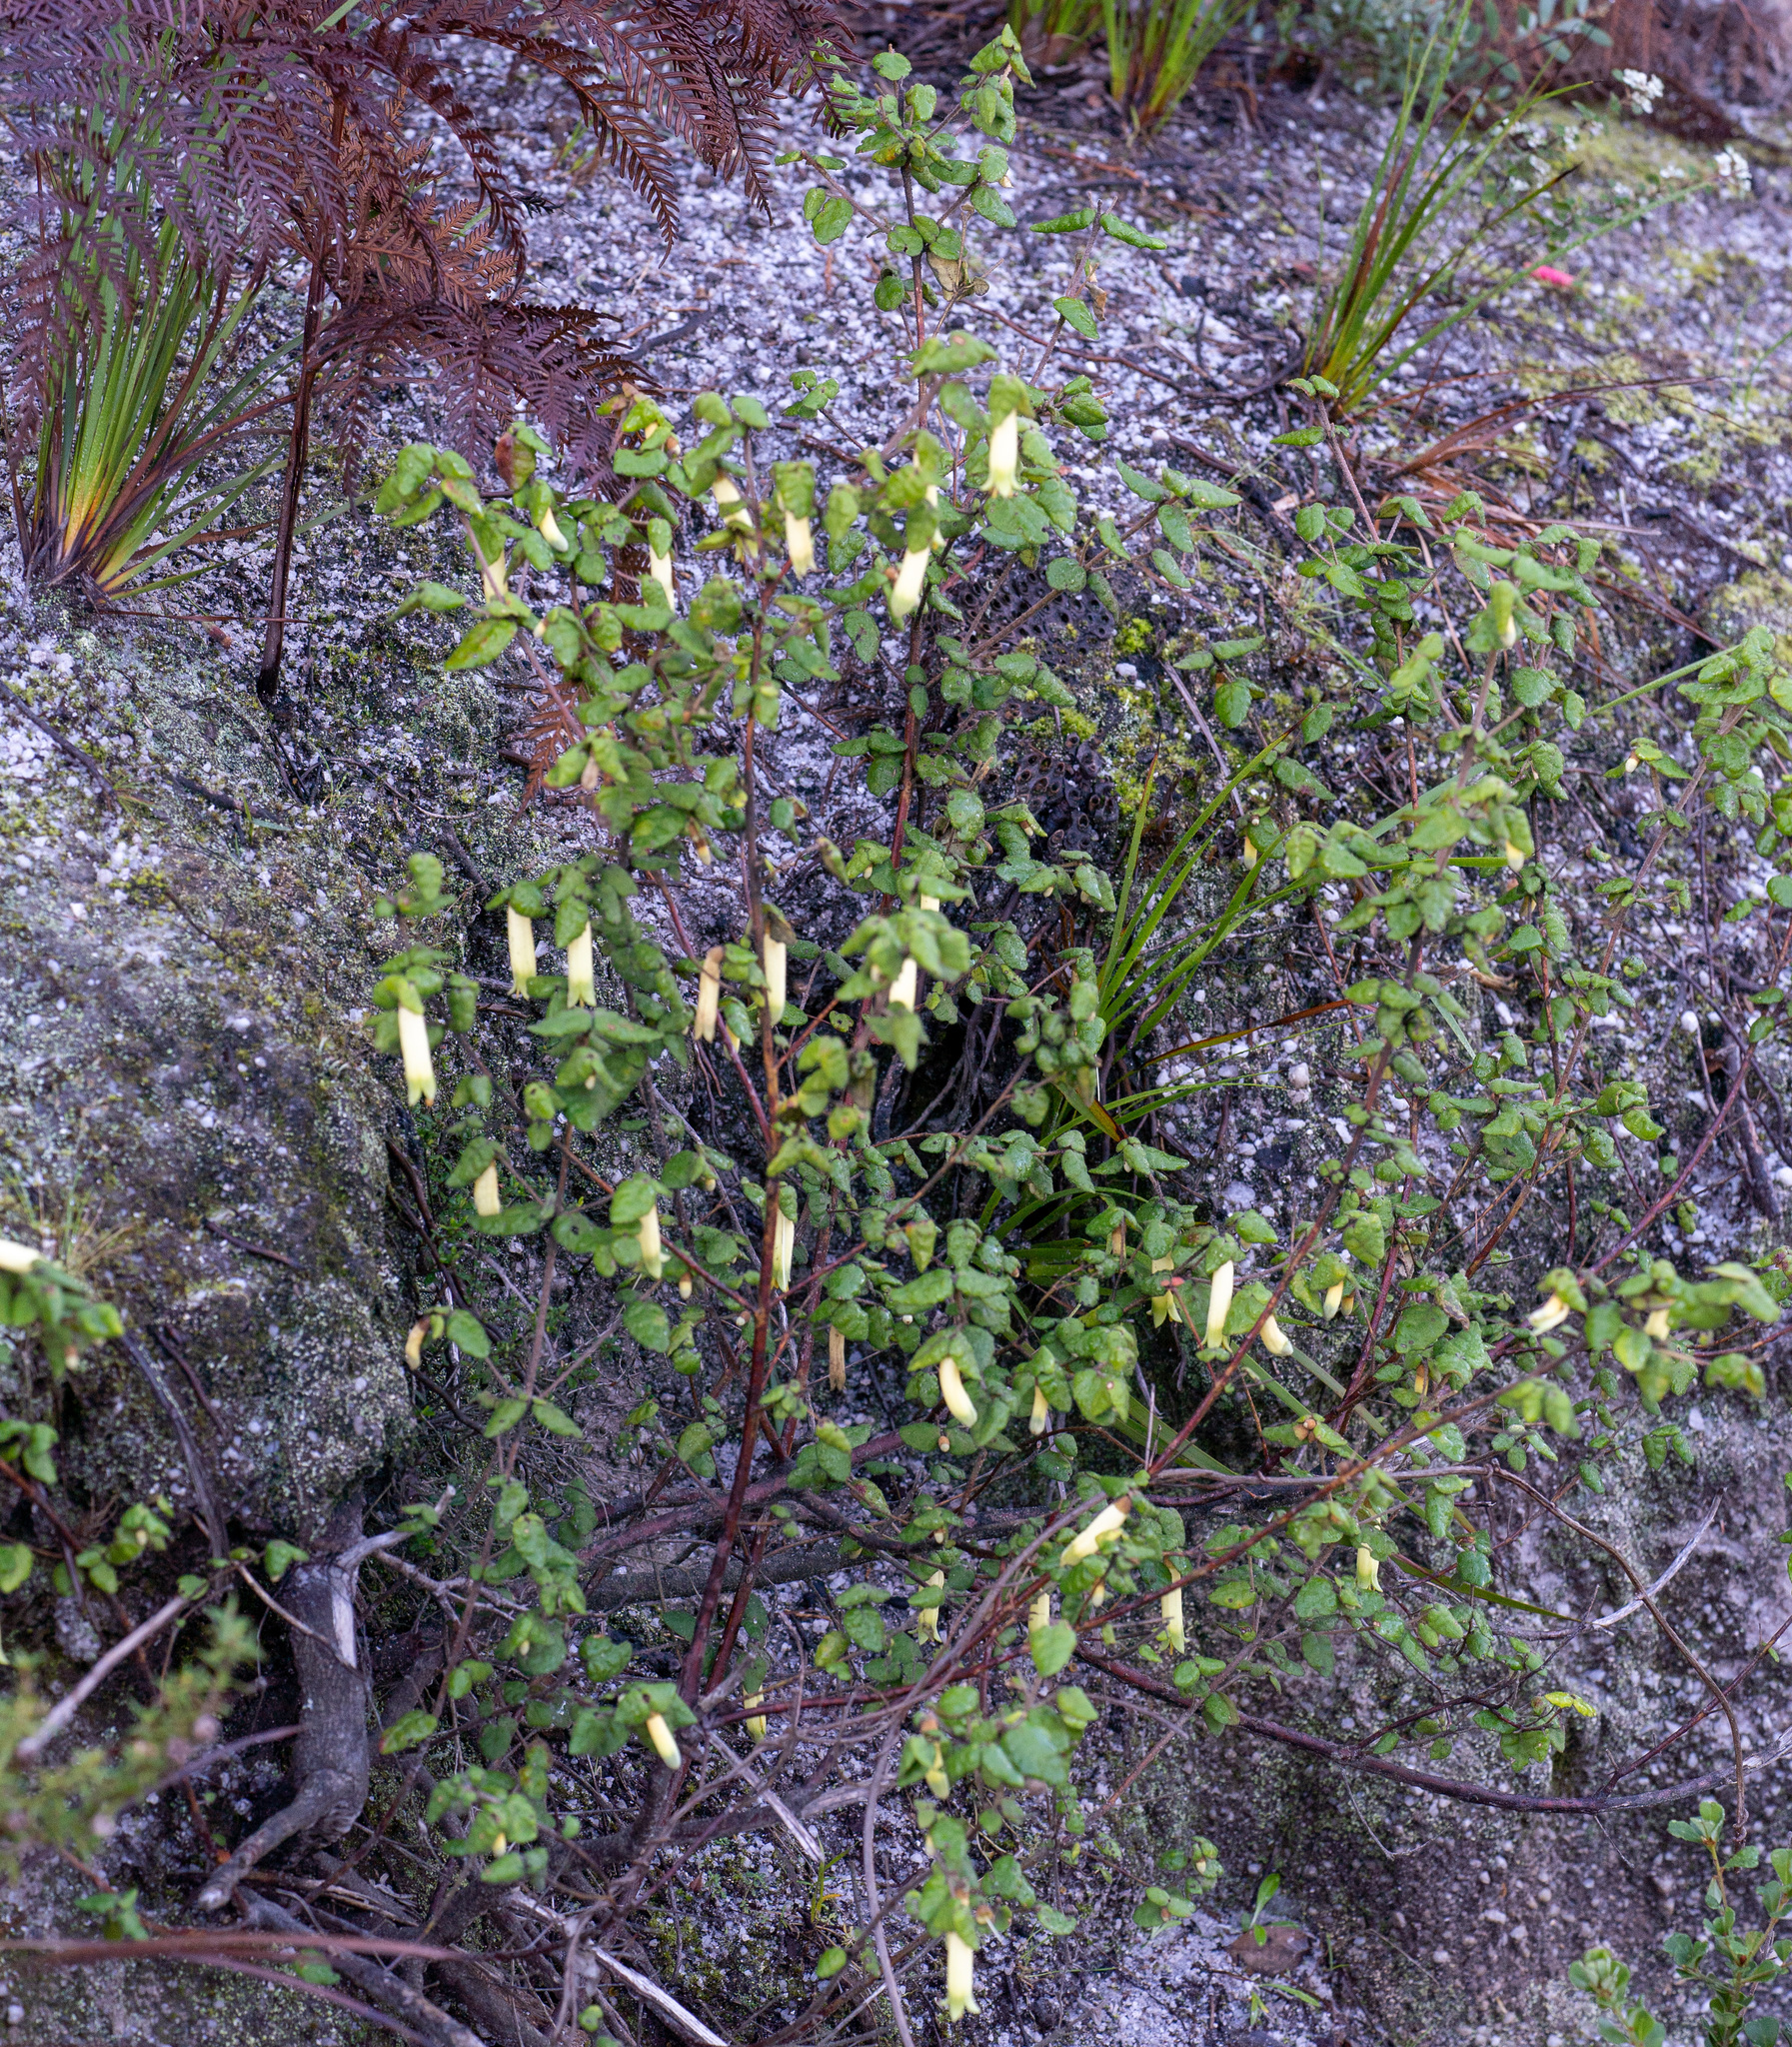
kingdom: Plantae
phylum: Tracheophyta
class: Magnoliopsida
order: Sapindales
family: Rutaceae
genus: Correa
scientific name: Correa reflexa
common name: Common correa
